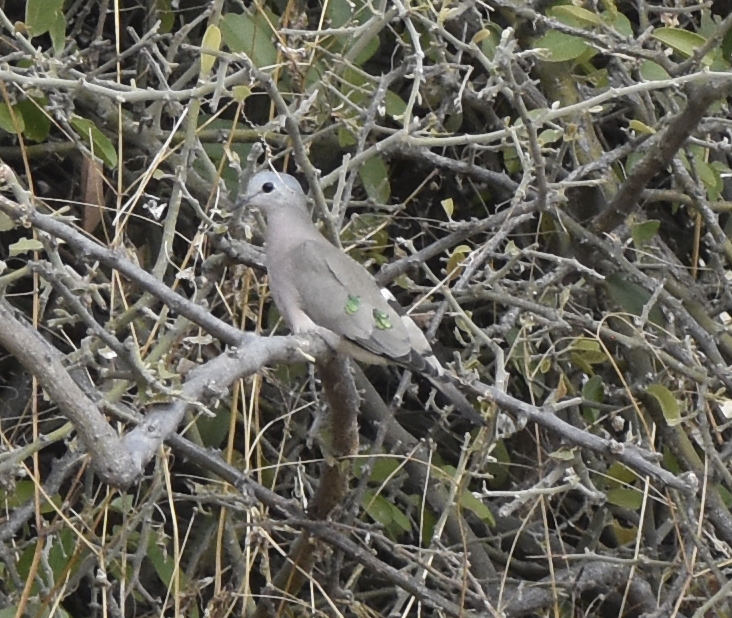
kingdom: Animalia
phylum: Chordata
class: Aves
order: Columbiformes
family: Columbidae
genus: Turtur
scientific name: Turtur chalcospilos
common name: Emerald-spotted wood dove
